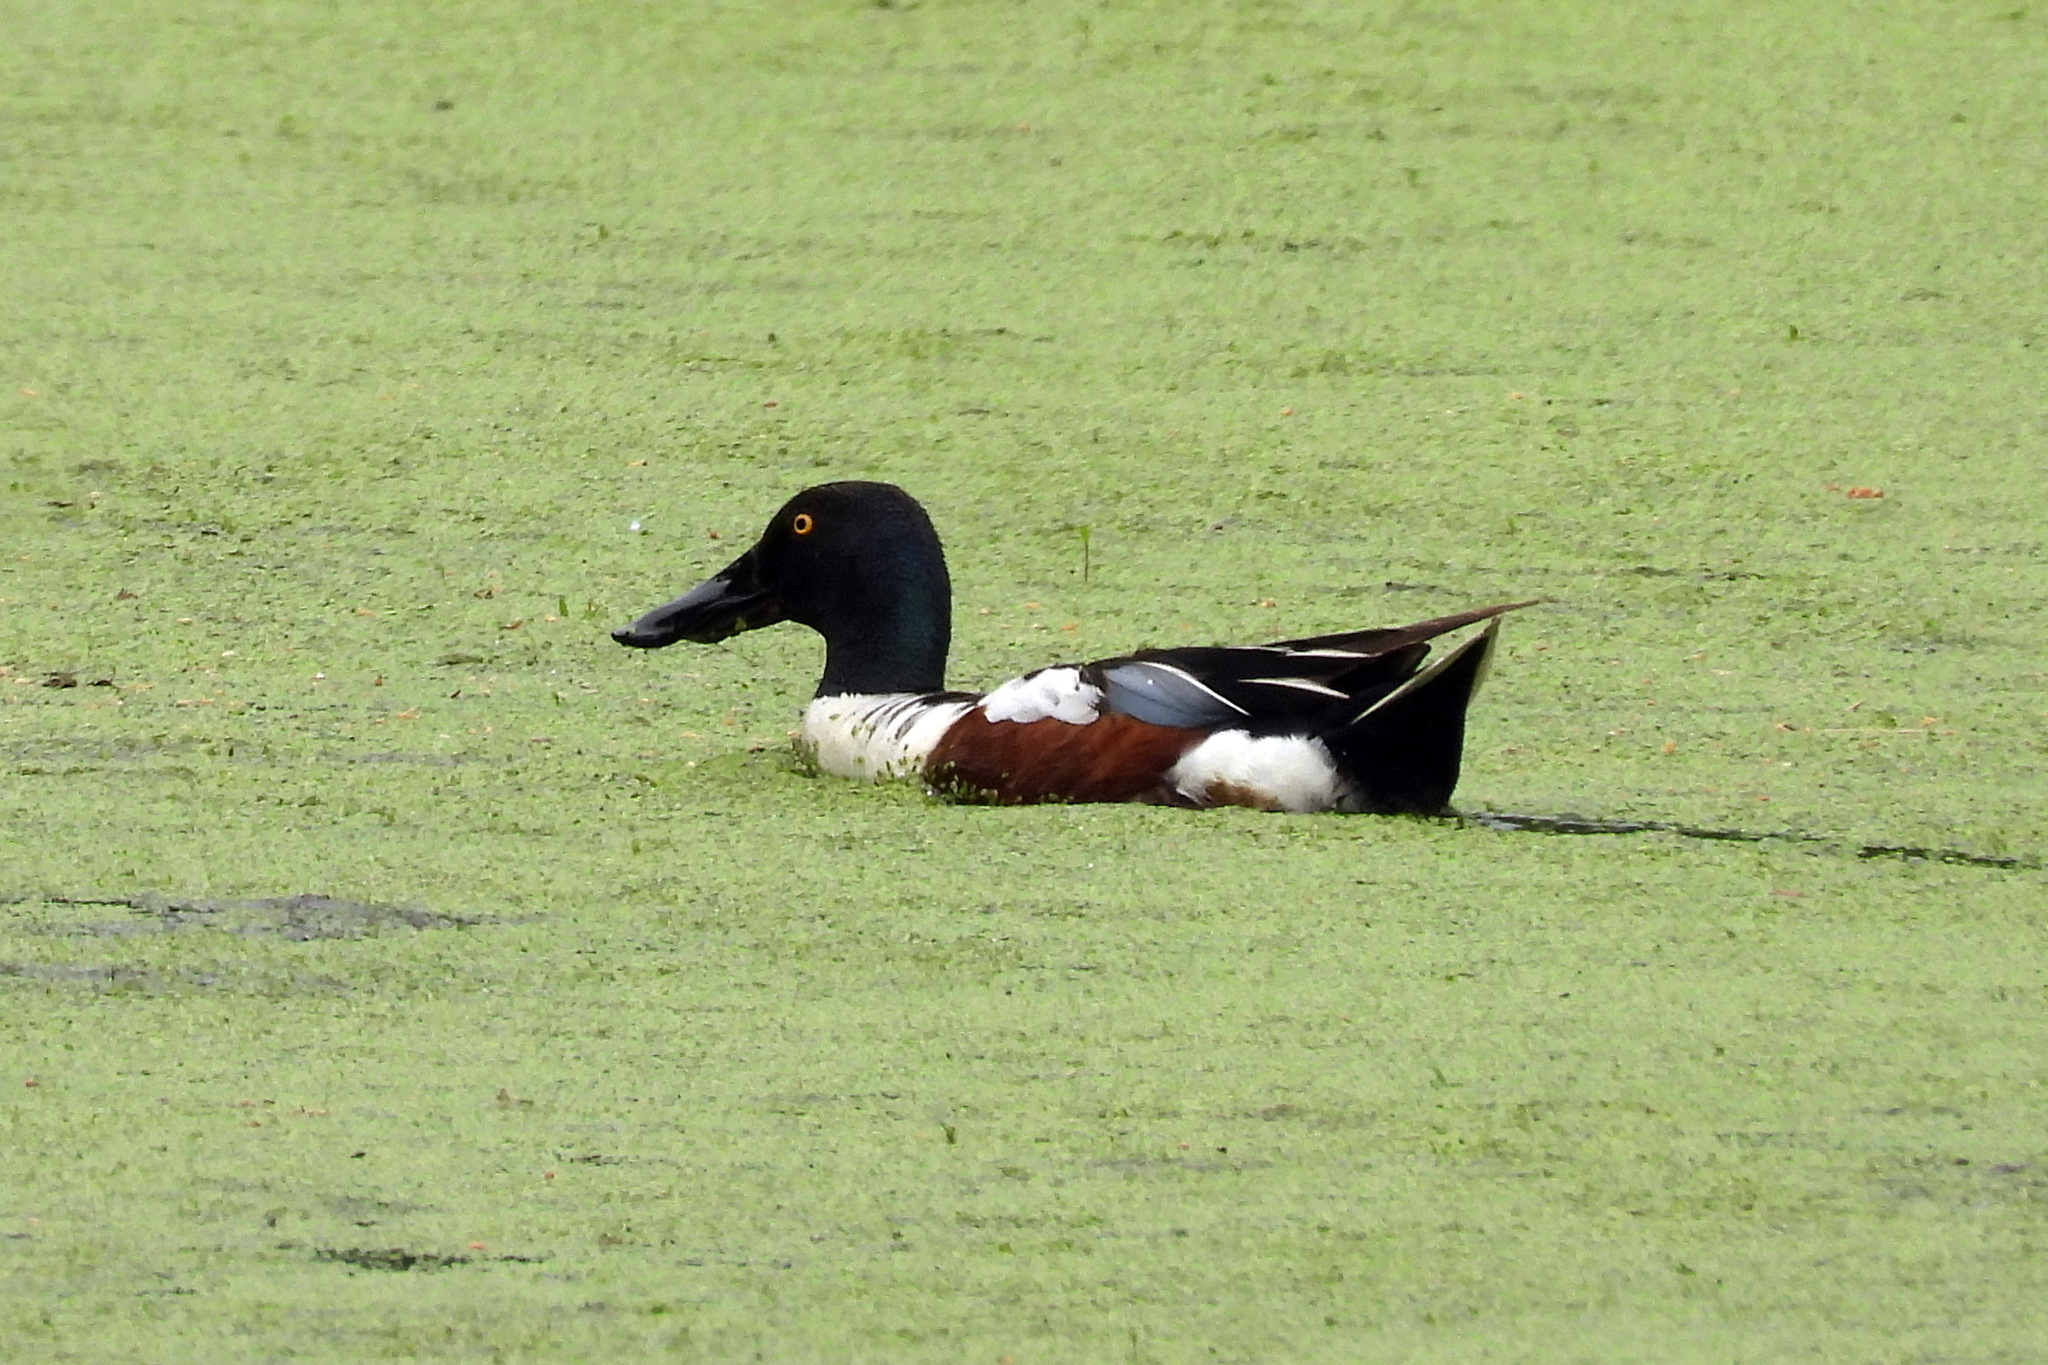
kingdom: Animalia
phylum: Chordata
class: Aves
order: Anseriformes
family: Anatidae
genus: Spatula
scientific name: Spatula clypeata
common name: Northern shoveler
